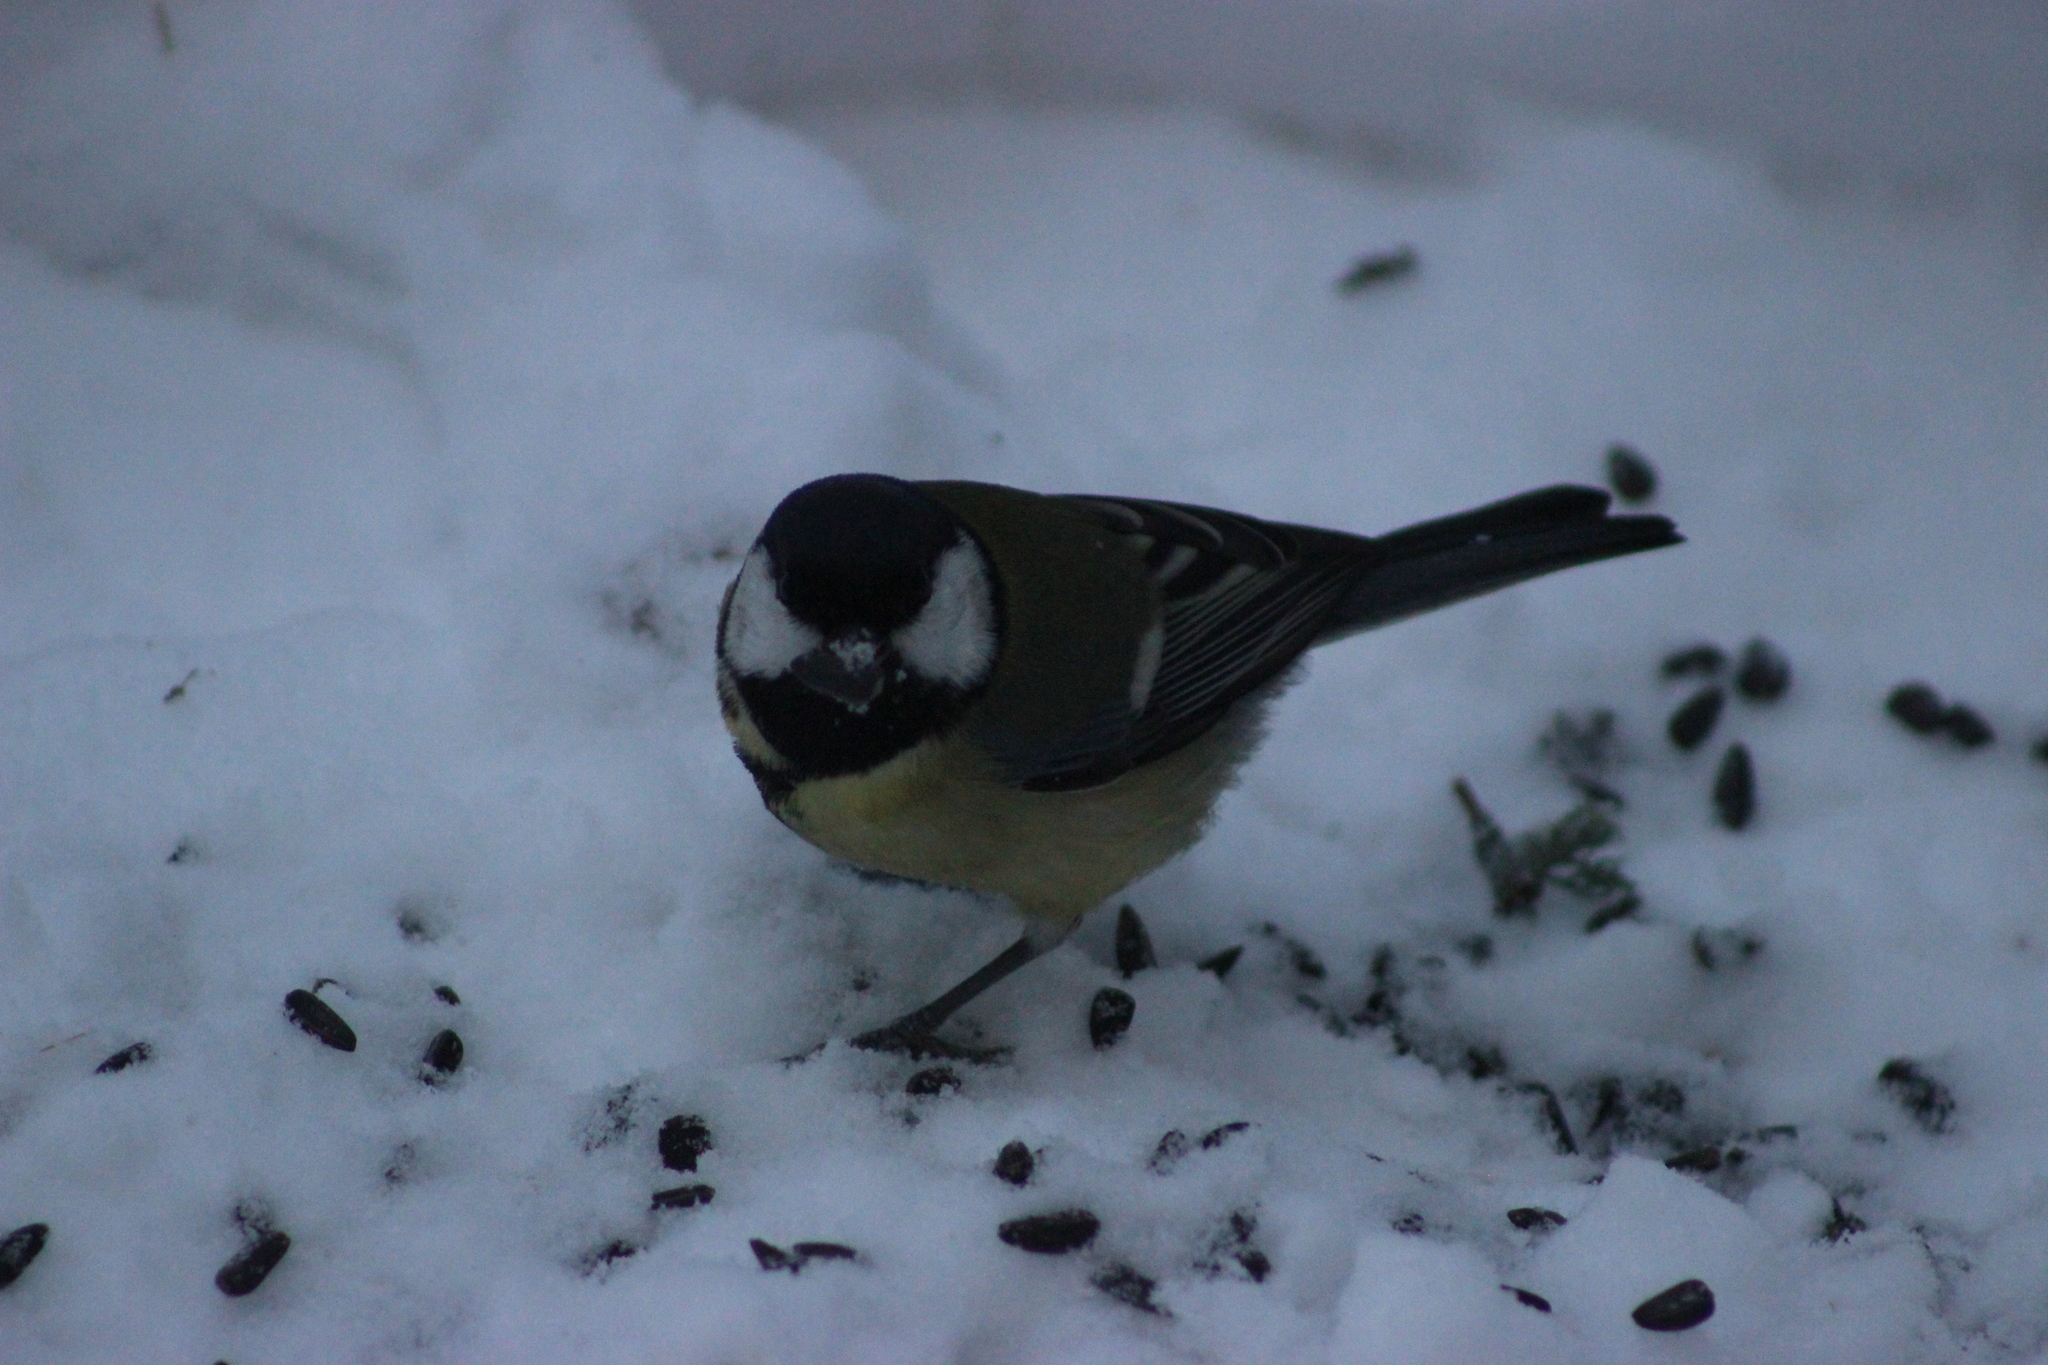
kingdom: Animalia
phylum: Chordata
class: Aves
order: Passeriformes
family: Paridae
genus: Parus
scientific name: Parus major
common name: Great tit
